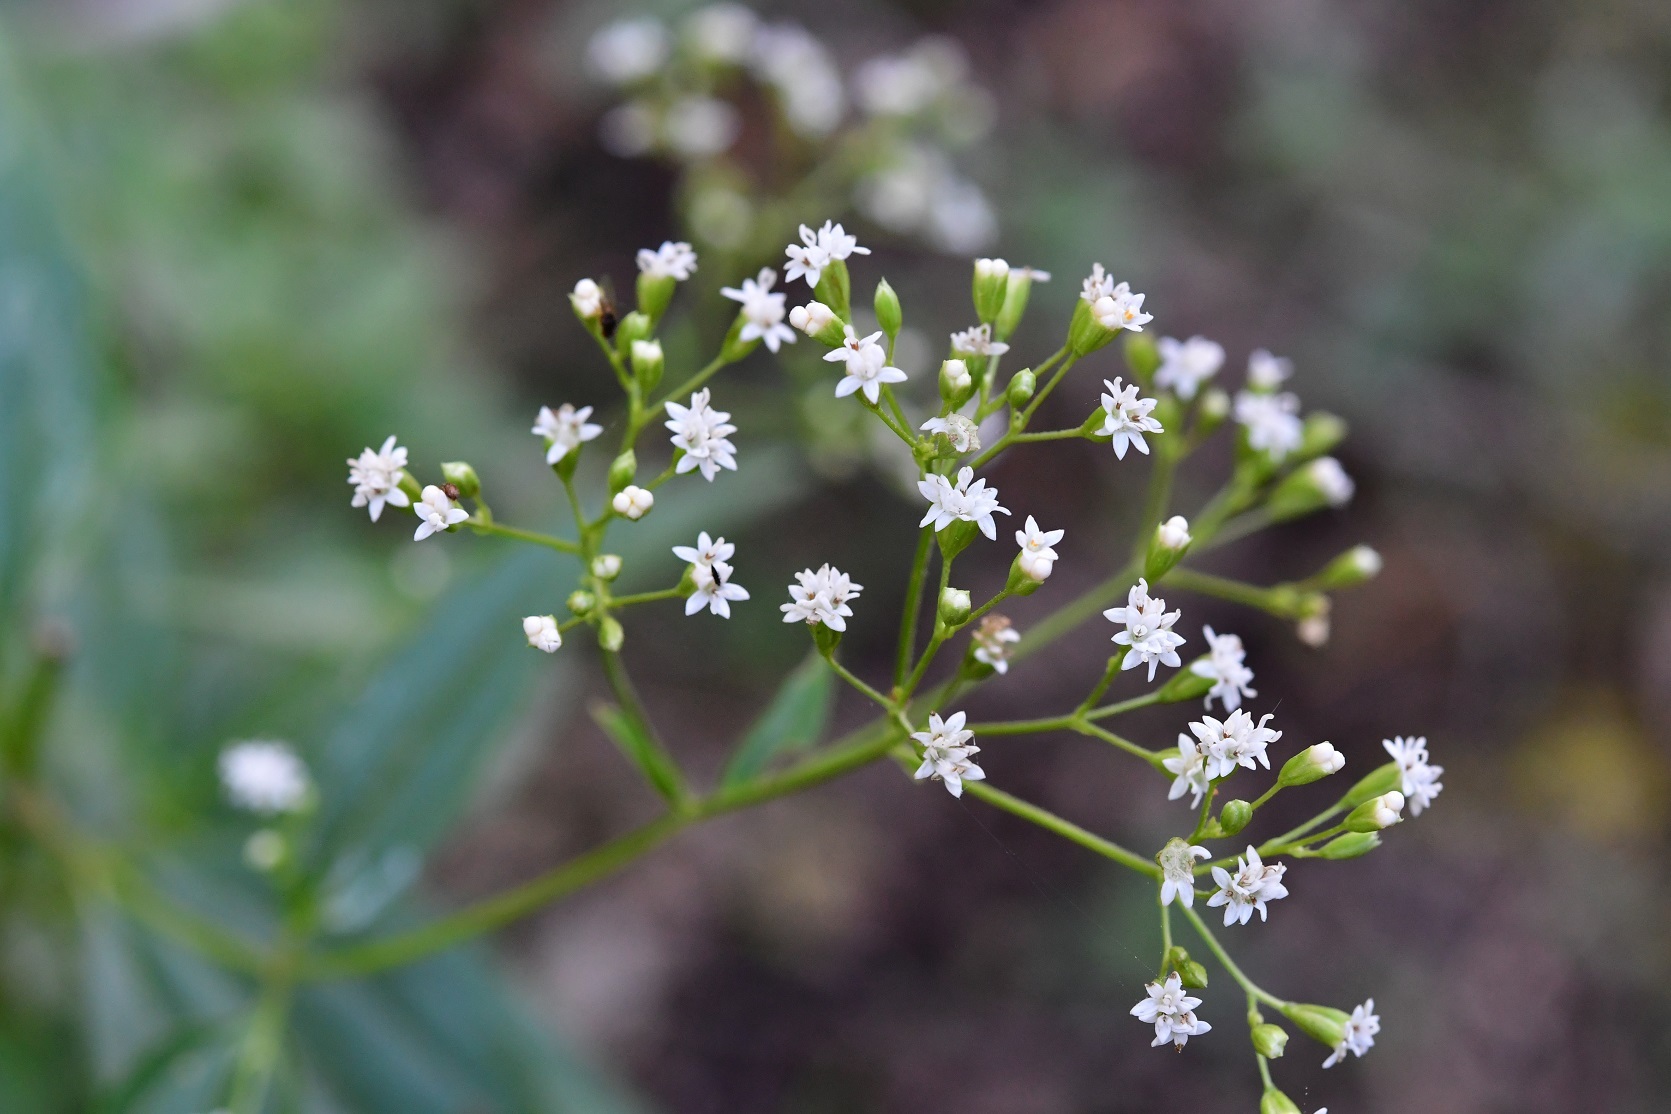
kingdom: Plantae
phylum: Tracheophyta
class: Magnoliopsida
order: Asterales
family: Asteraceae
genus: Piqueria
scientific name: Piqueria trinervia
